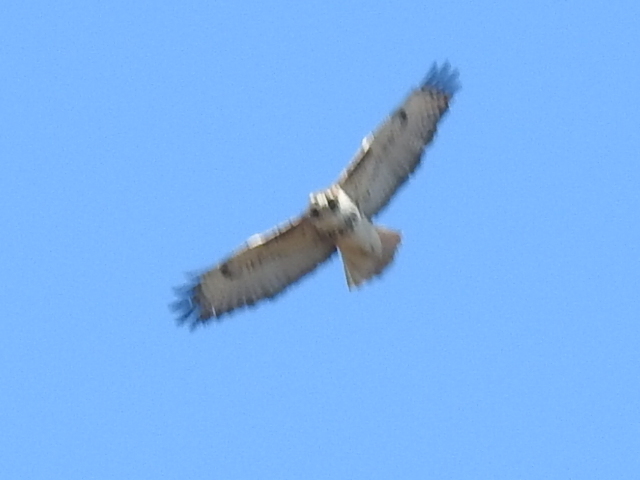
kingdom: Animalia
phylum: Chordata
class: Aves
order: Accipitriformes
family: Accipitridae
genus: Buteo
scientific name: Buteo jamaicensis
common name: Red-tailed hawk
